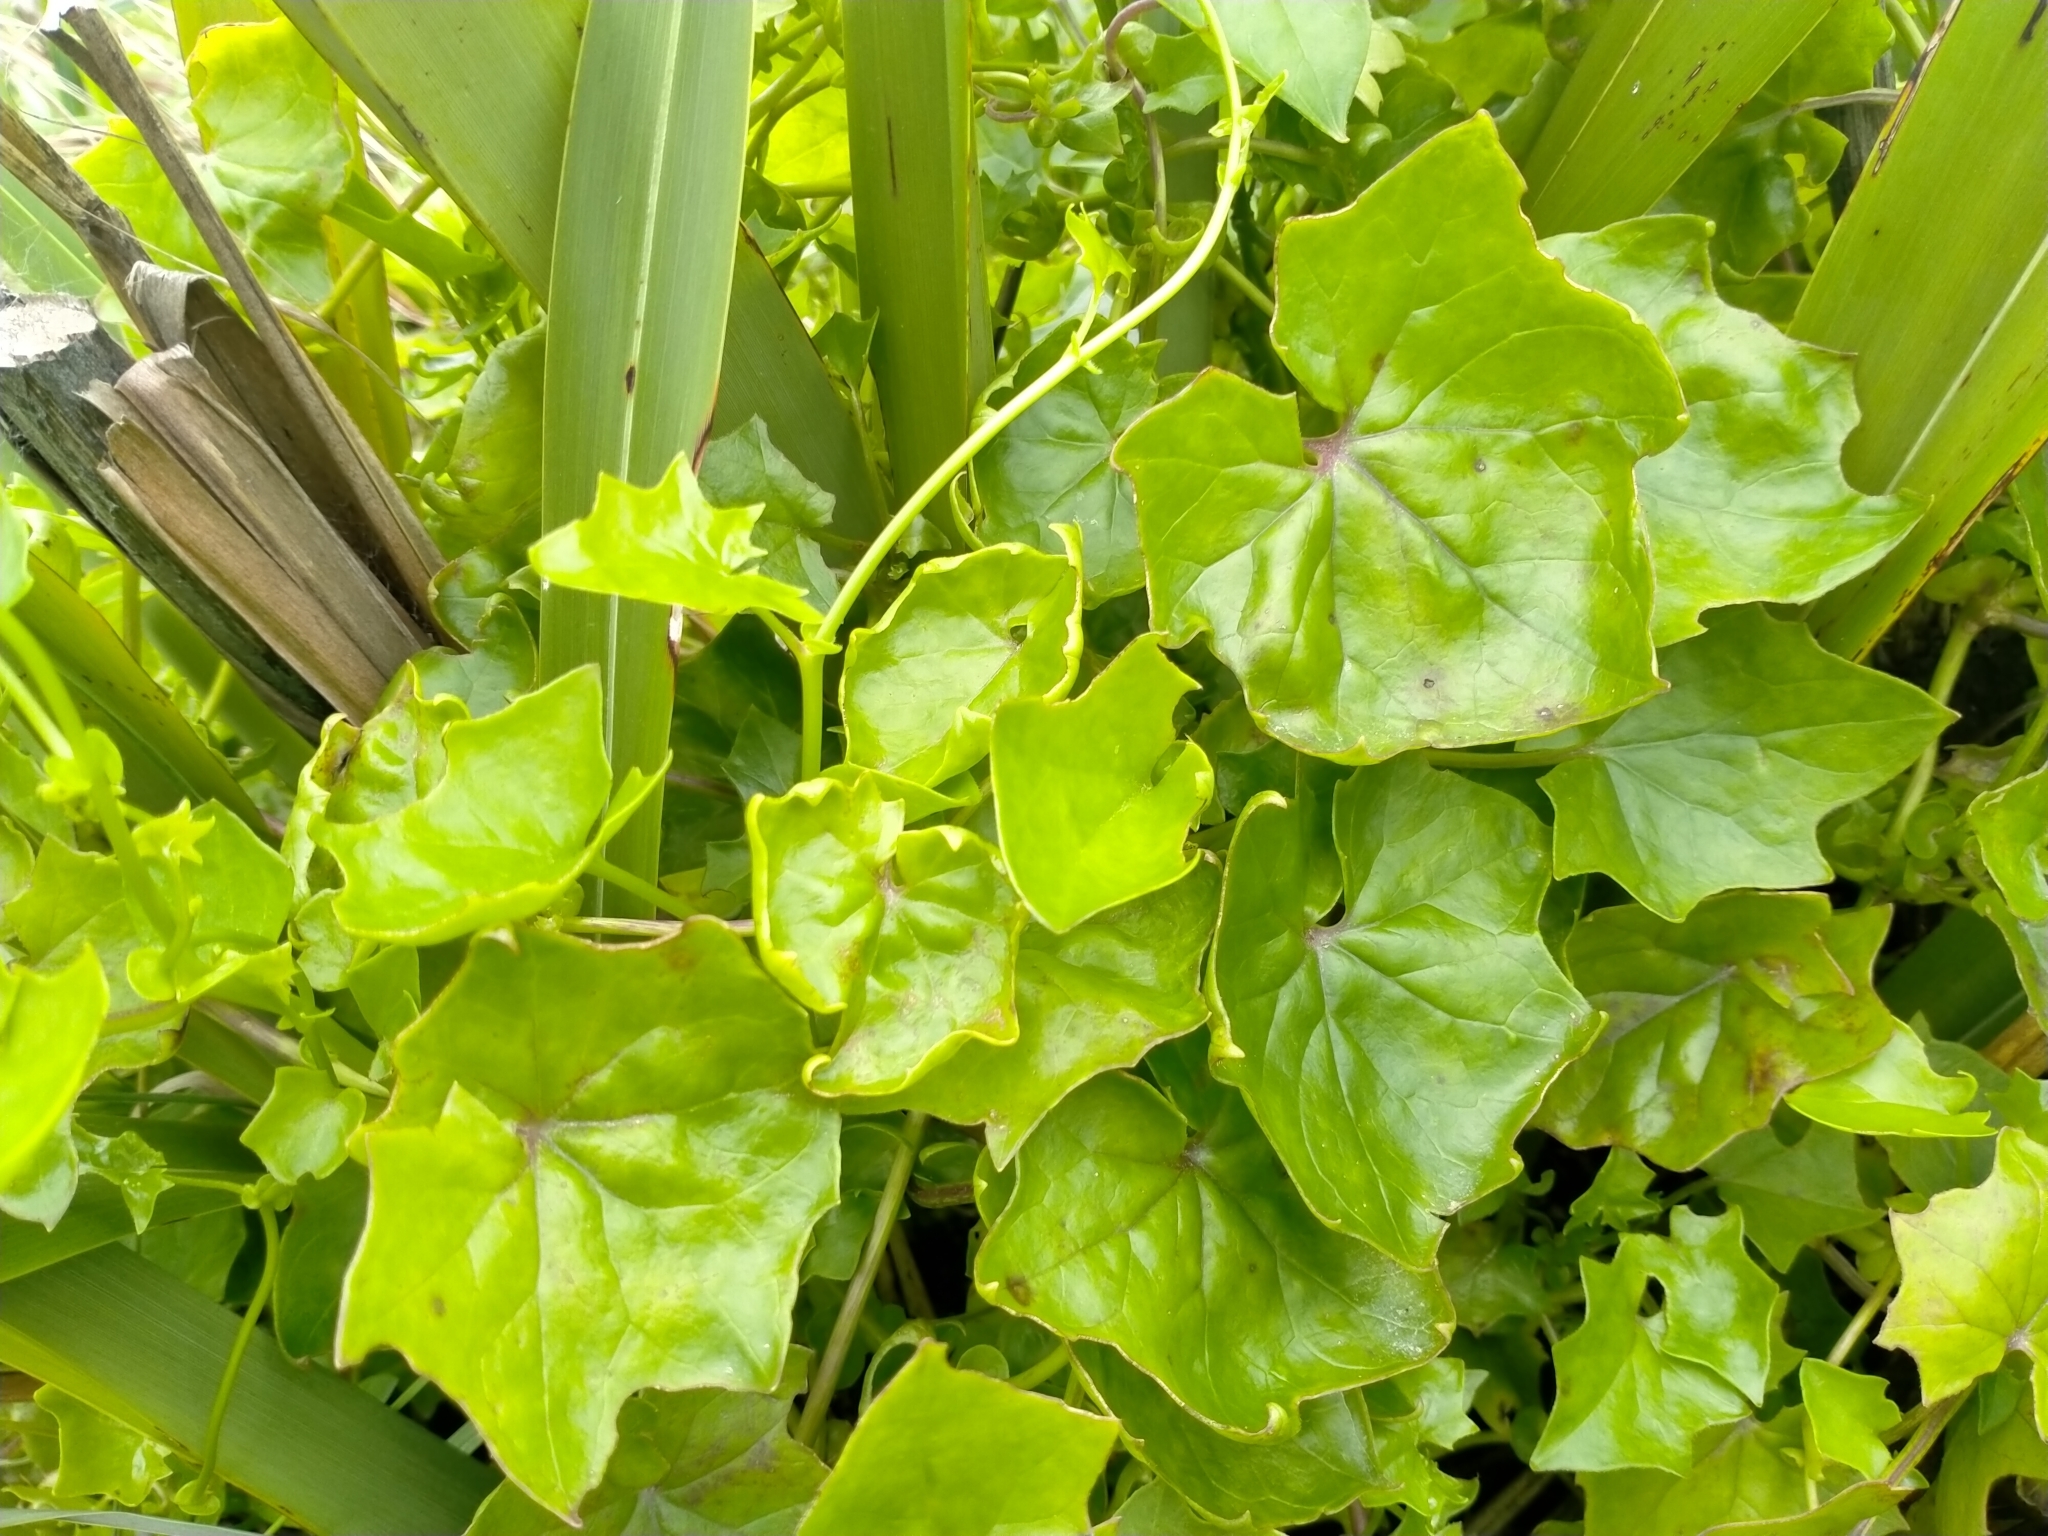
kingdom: Plantae
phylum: Tracheophyta
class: Magnoliopsida
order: Asterales
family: Asteraceae
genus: Delairea
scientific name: Delairea odorata
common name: Cape-ivy
